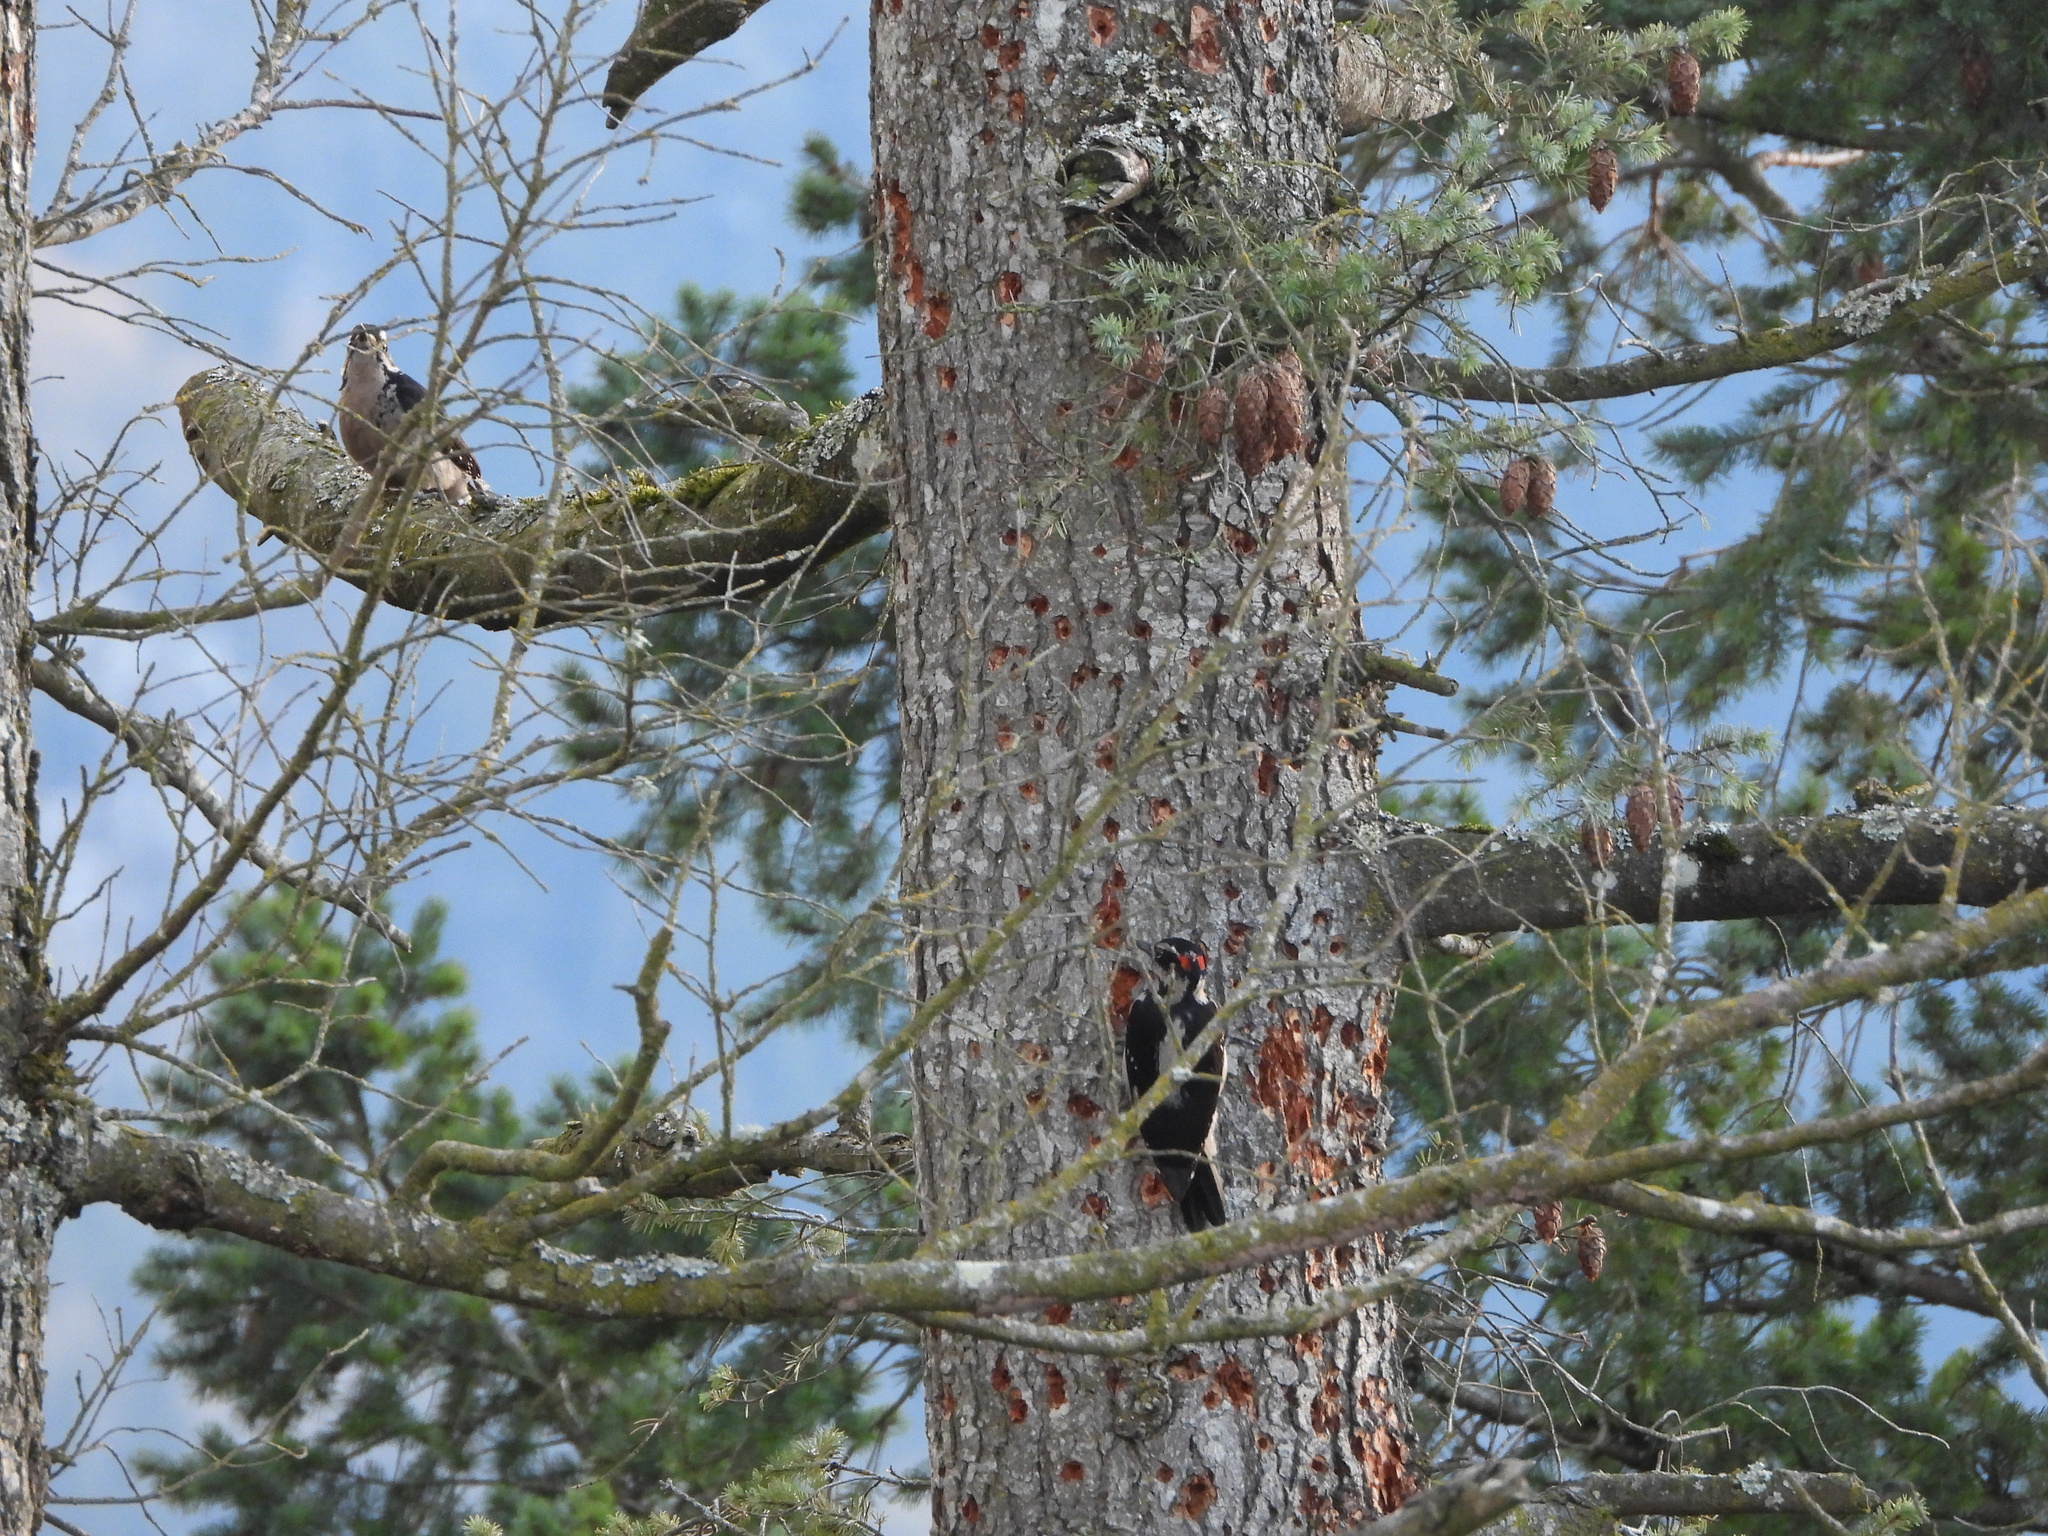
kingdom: Animalia
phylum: Chordata
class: Aves
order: Piciformes
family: Picidae
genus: Leuconotopicus
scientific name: Leuconotopicus villosus
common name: Hairy woodpecker
